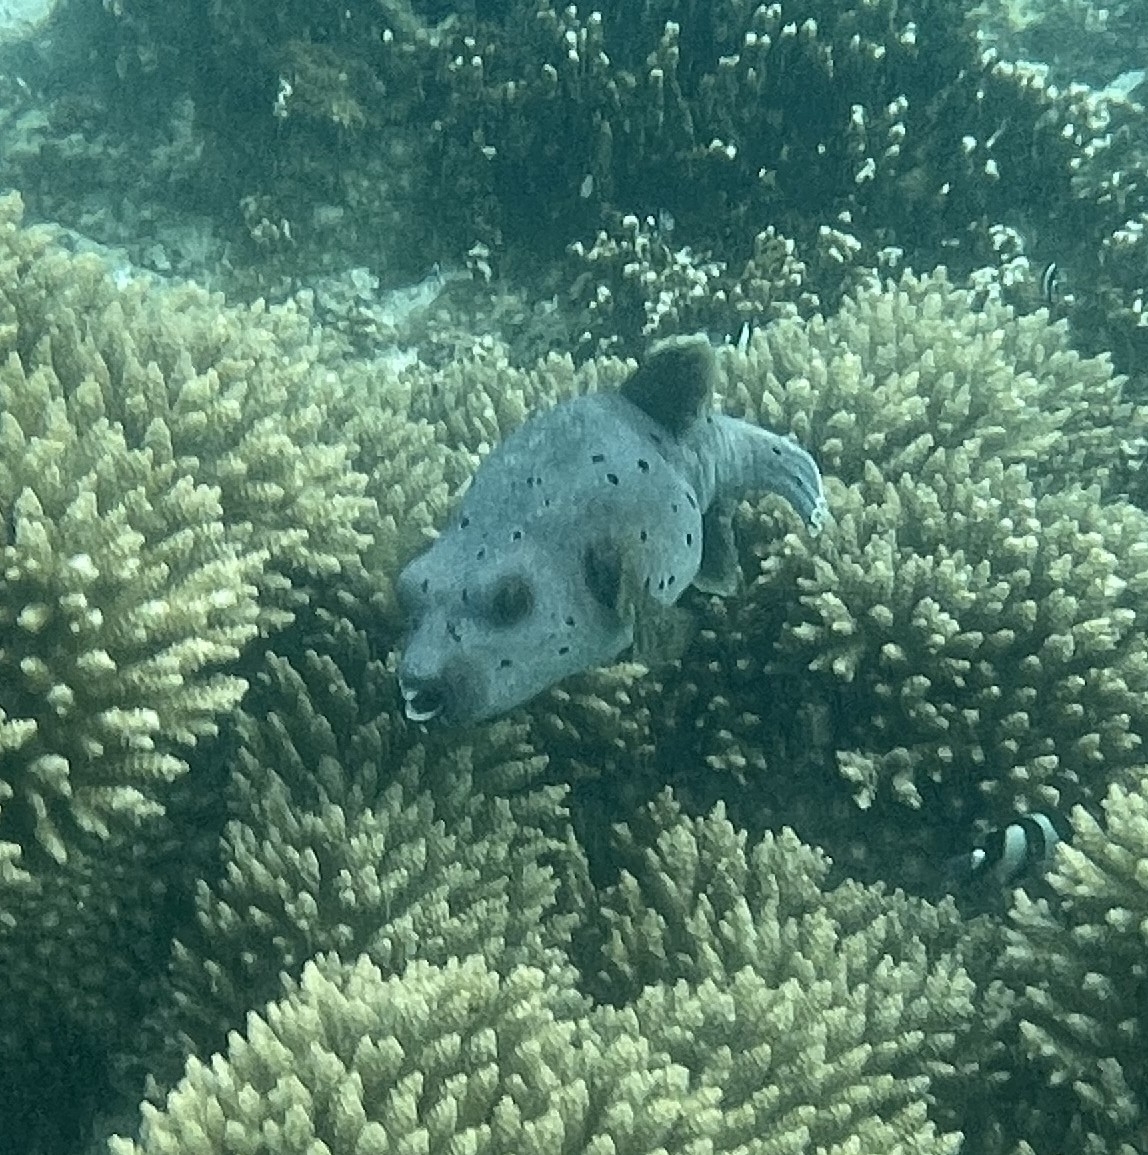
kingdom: Animalia
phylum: Chordata
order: Tetraodontiformes
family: Tetraodontidae
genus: Arothron
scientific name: Arothron nigropunctatus
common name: Black spotted blow fish
